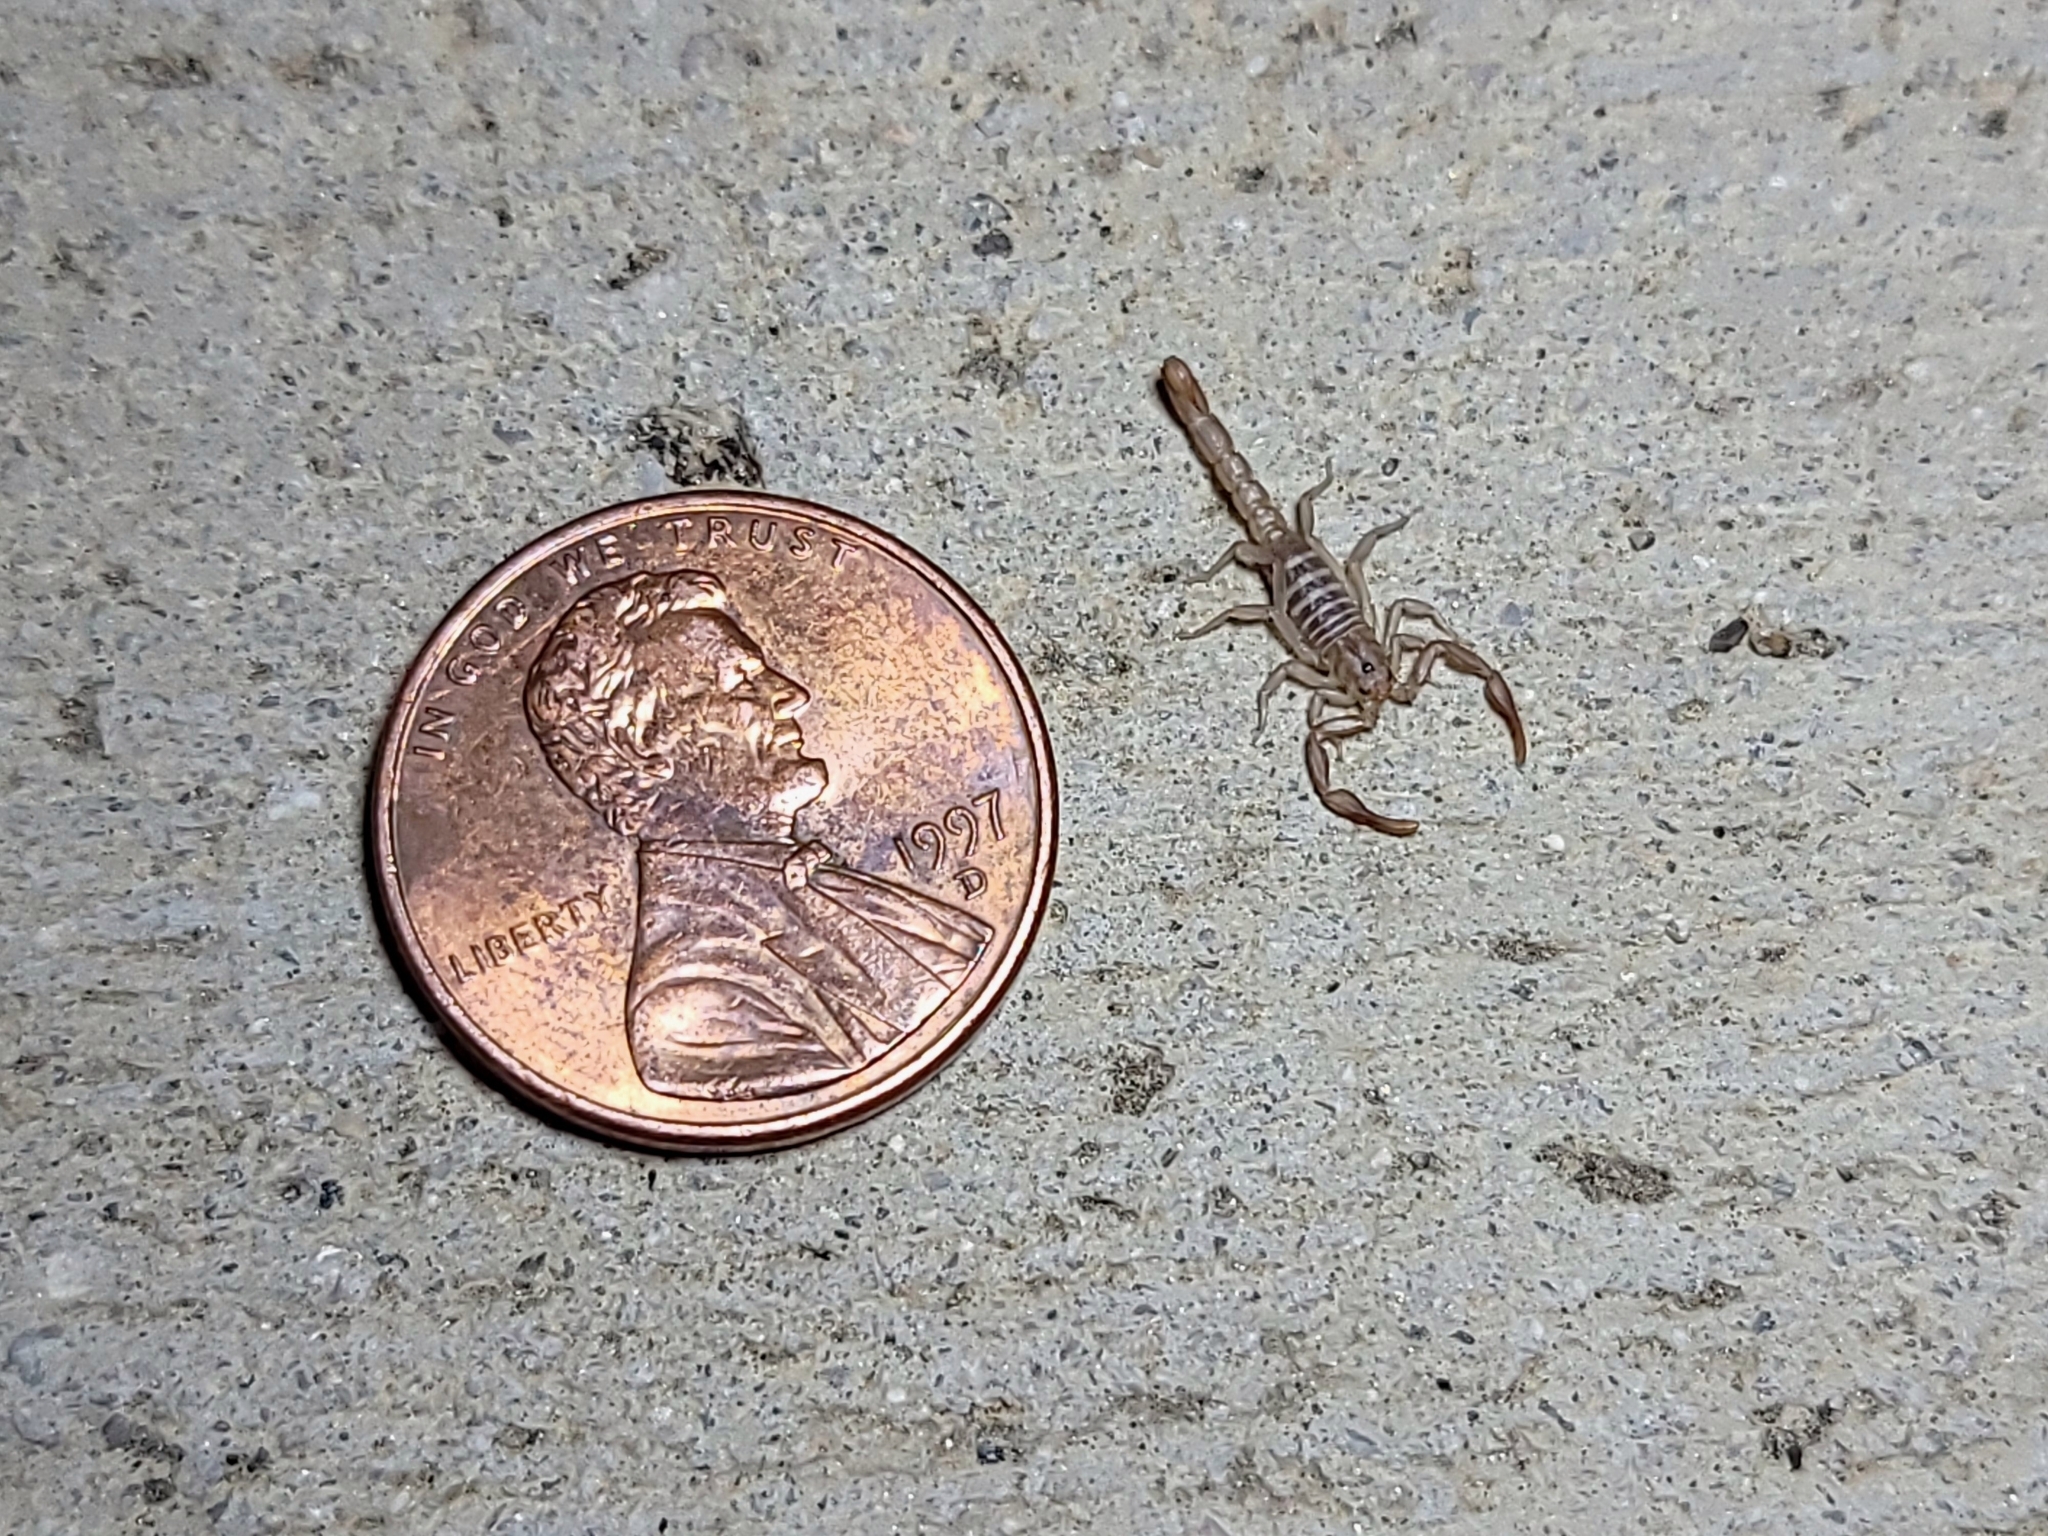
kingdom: Animalia
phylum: Arthropoda
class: Arachnida
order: Scorpiones
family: Vaejovidae
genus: Serradigitus
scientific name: Serradigitus gertschi
